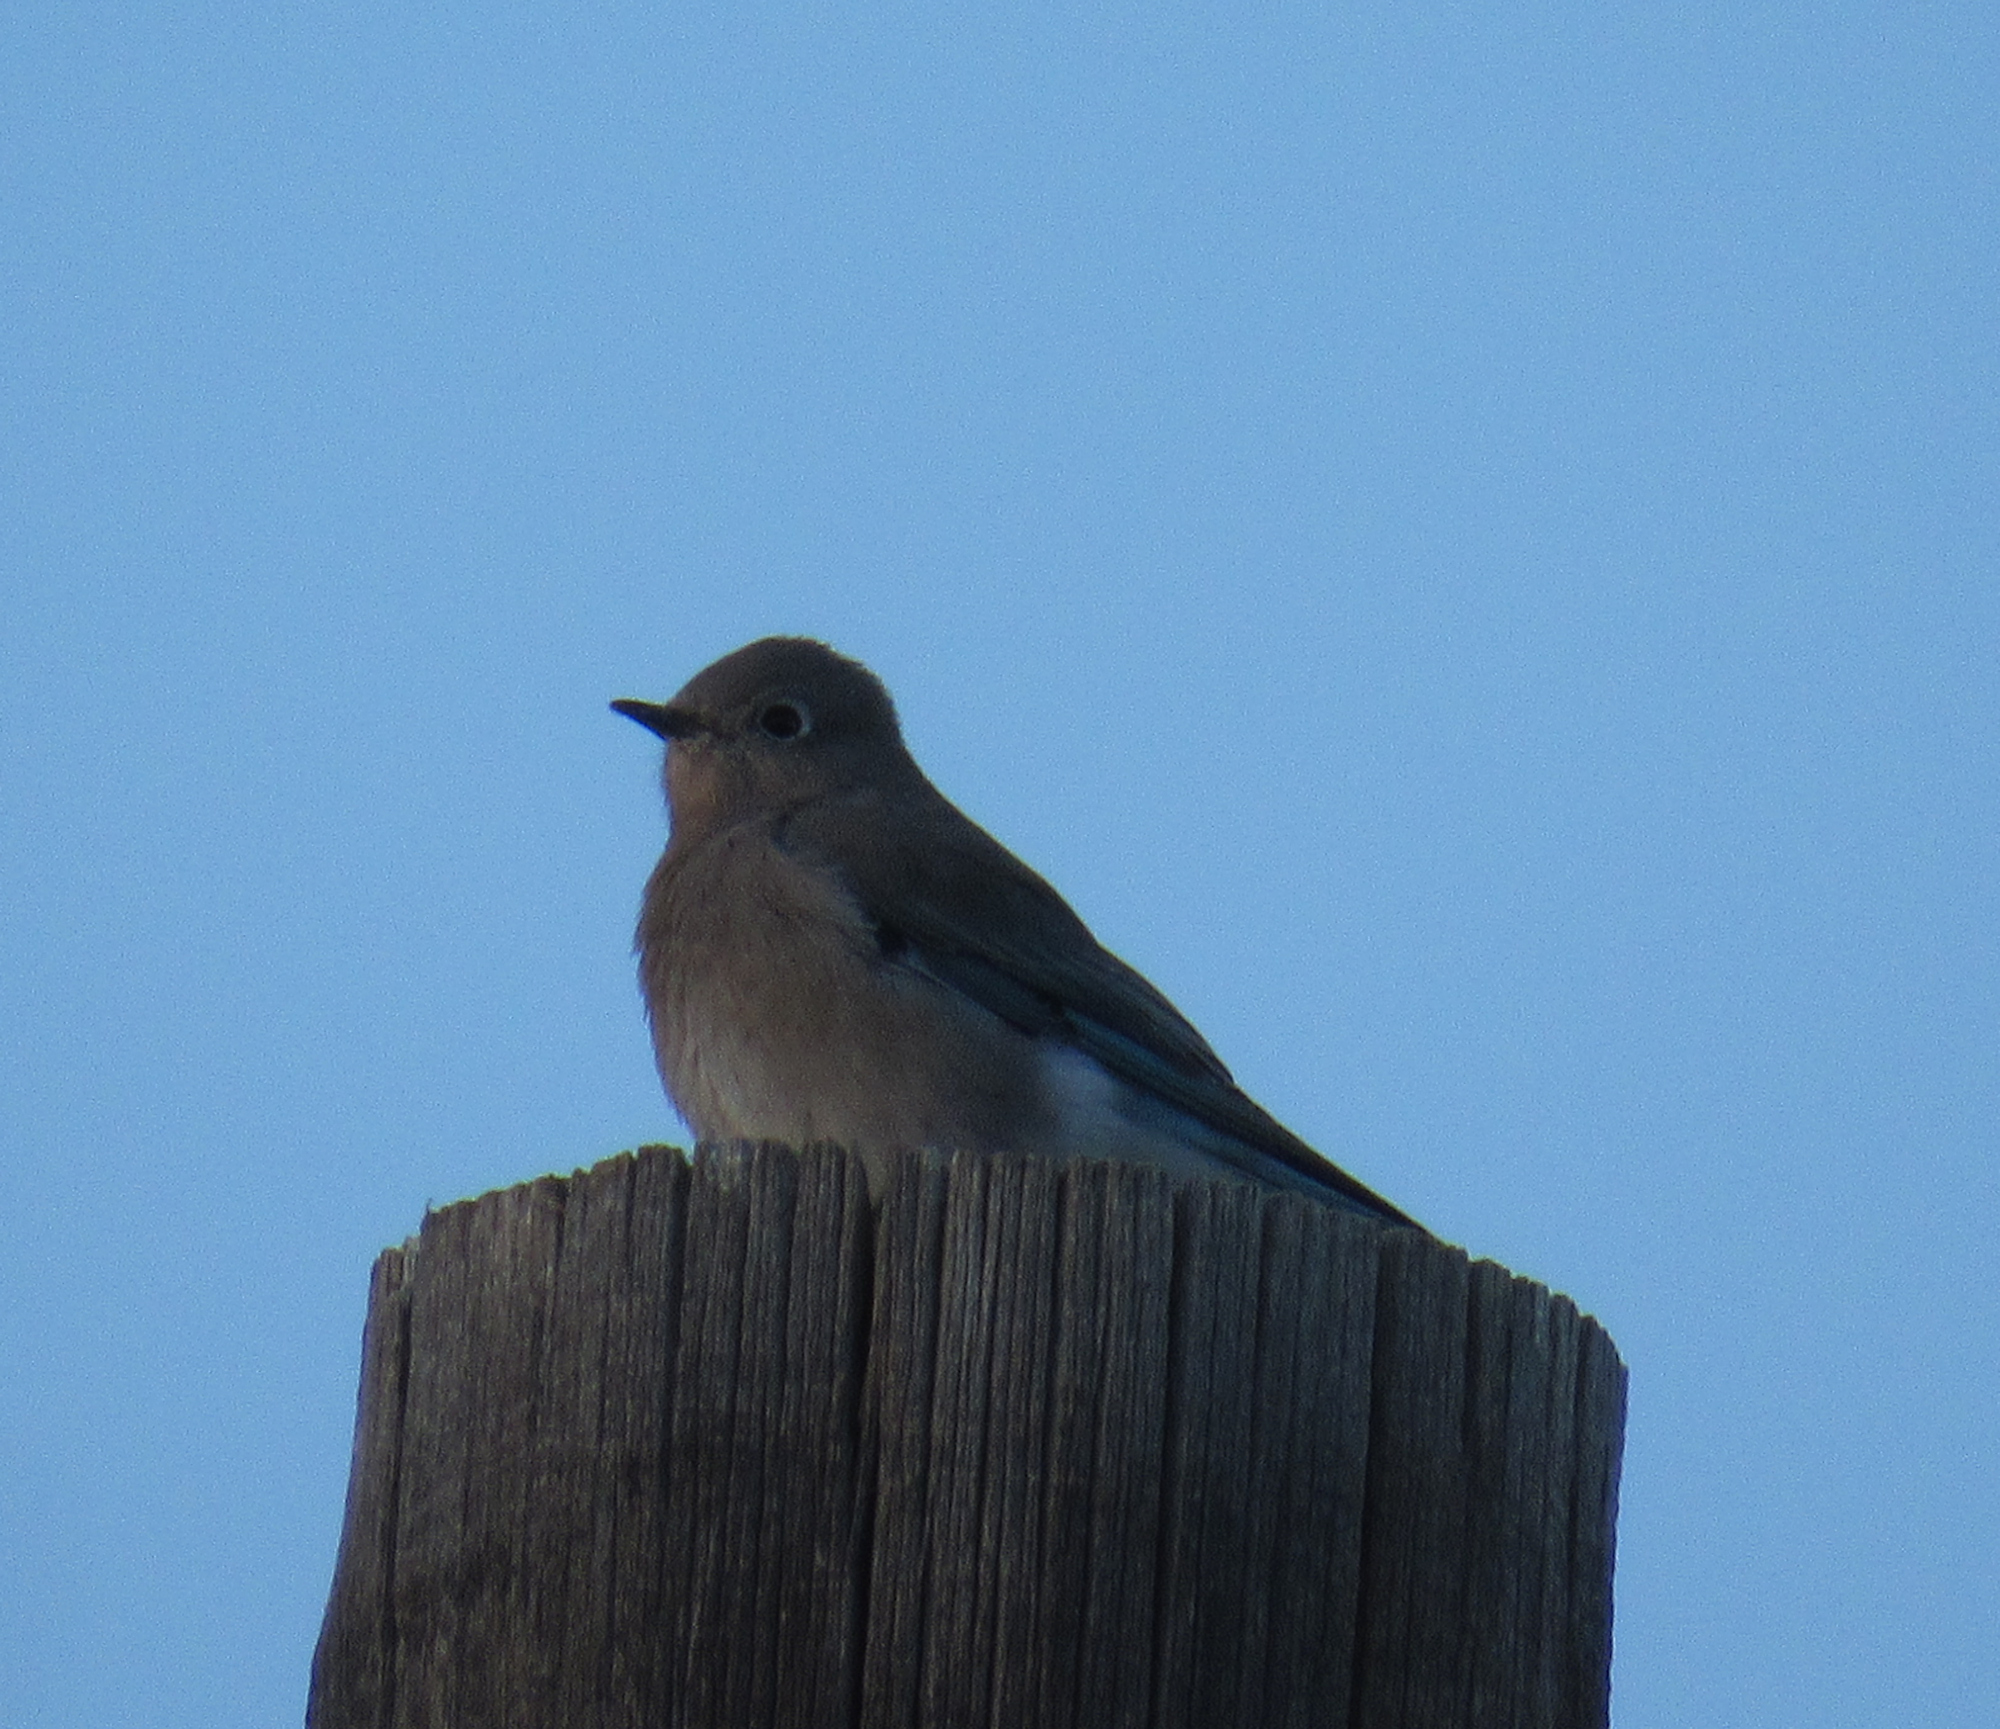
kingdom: Animalia
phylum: Chordata
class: Aves
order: Passeriformes
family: Turdidae
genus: Sialia
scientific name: Sialia currucoides
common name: Mountain bluebird
